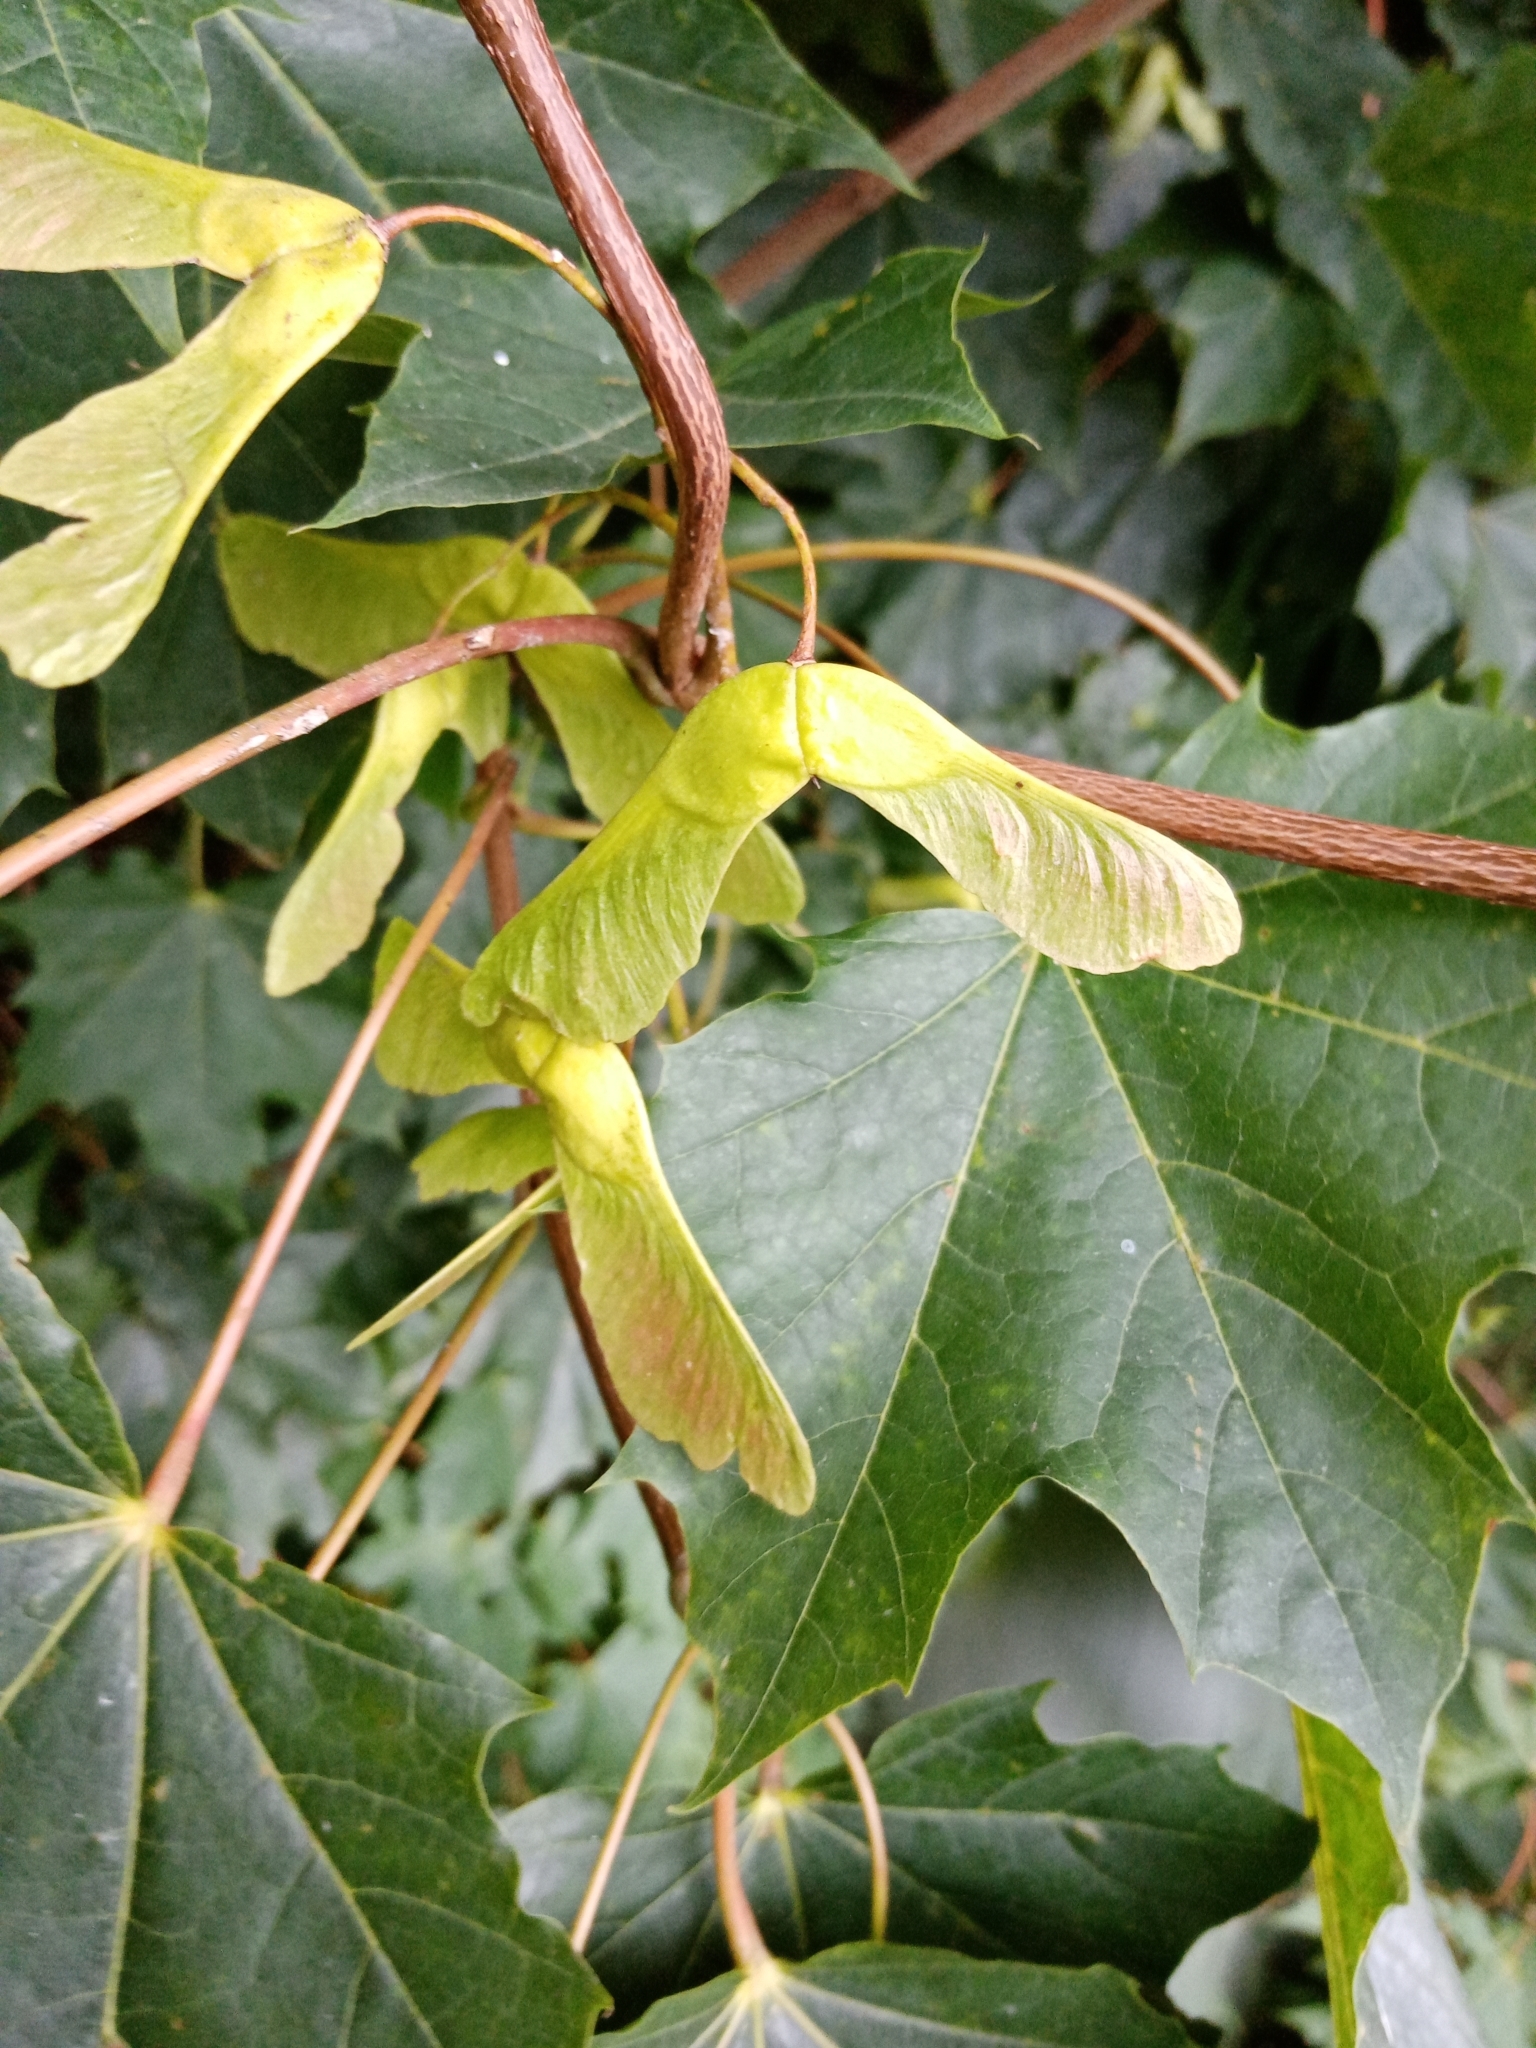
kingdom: Plantae
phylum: Tracheophyta
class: Magnoliopsida
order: Sapindales
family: Sapindaceae
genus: Acer
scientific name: Acer platanoides
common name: Norway maple
